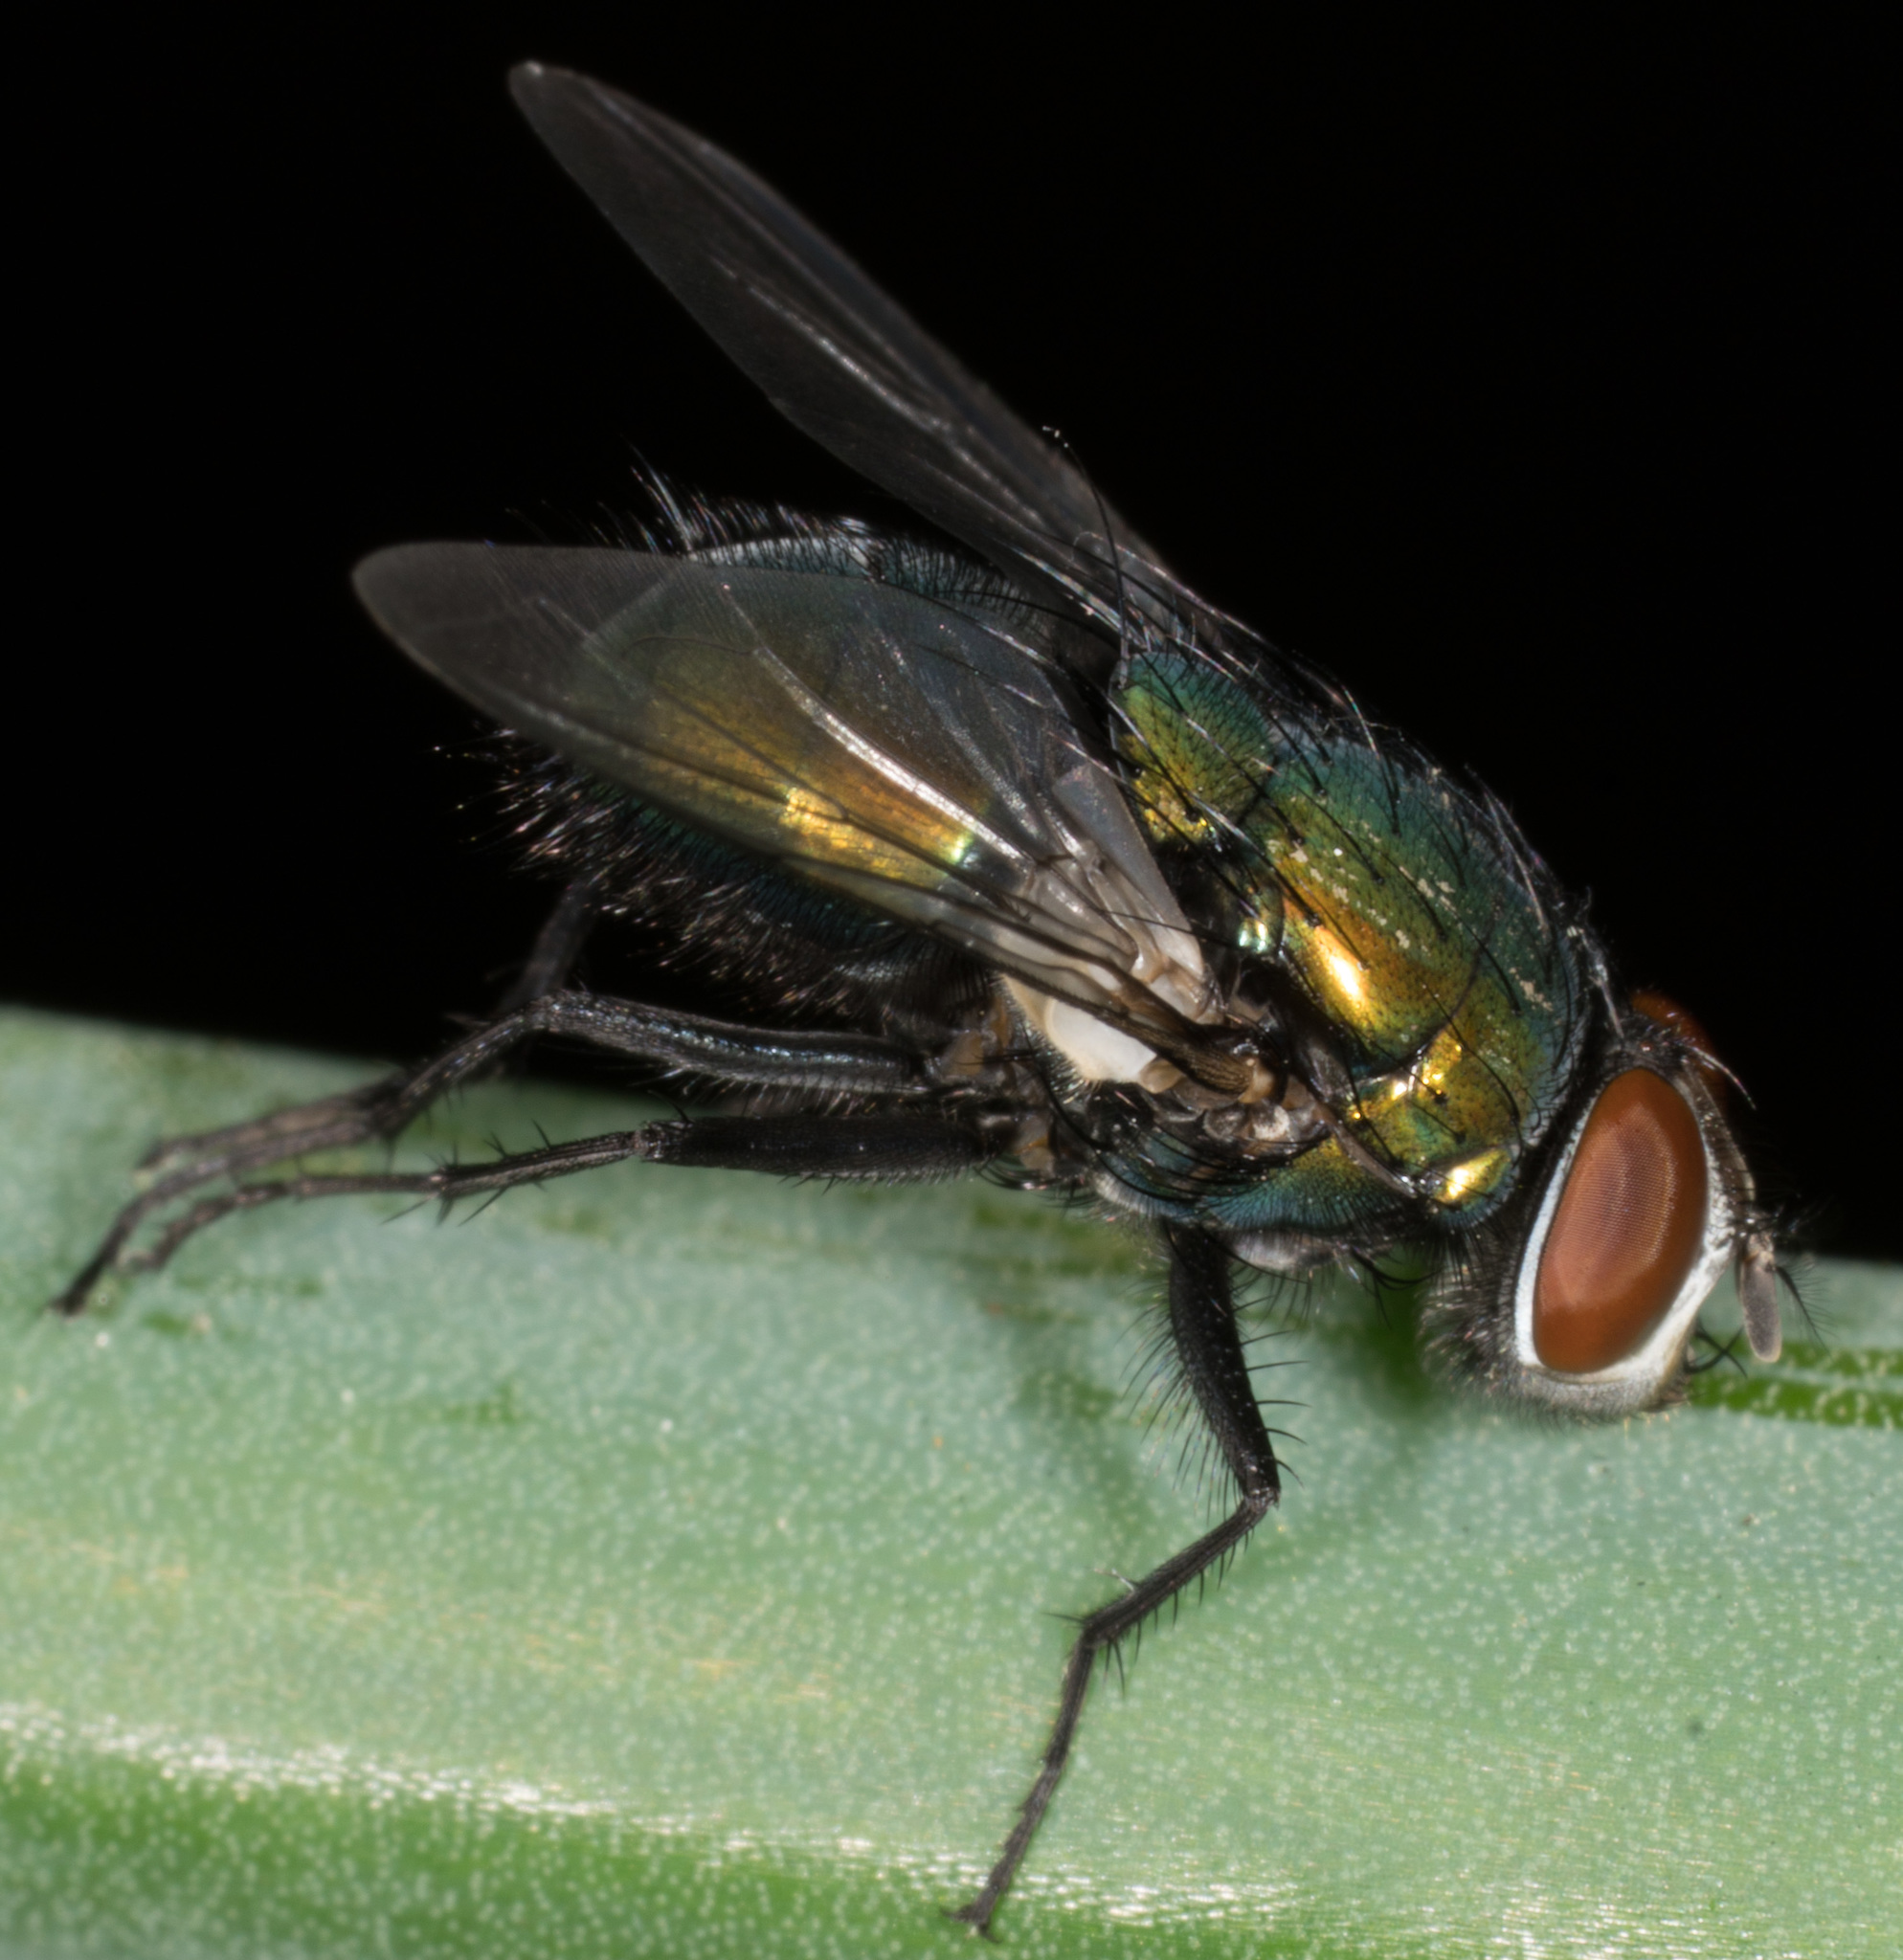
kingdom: Animalia
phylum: Arthropoda
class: Insecta
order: Diptera
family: Calliphoridae
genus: Lucilia
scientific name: Lucilia sericata
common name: Blow fly
